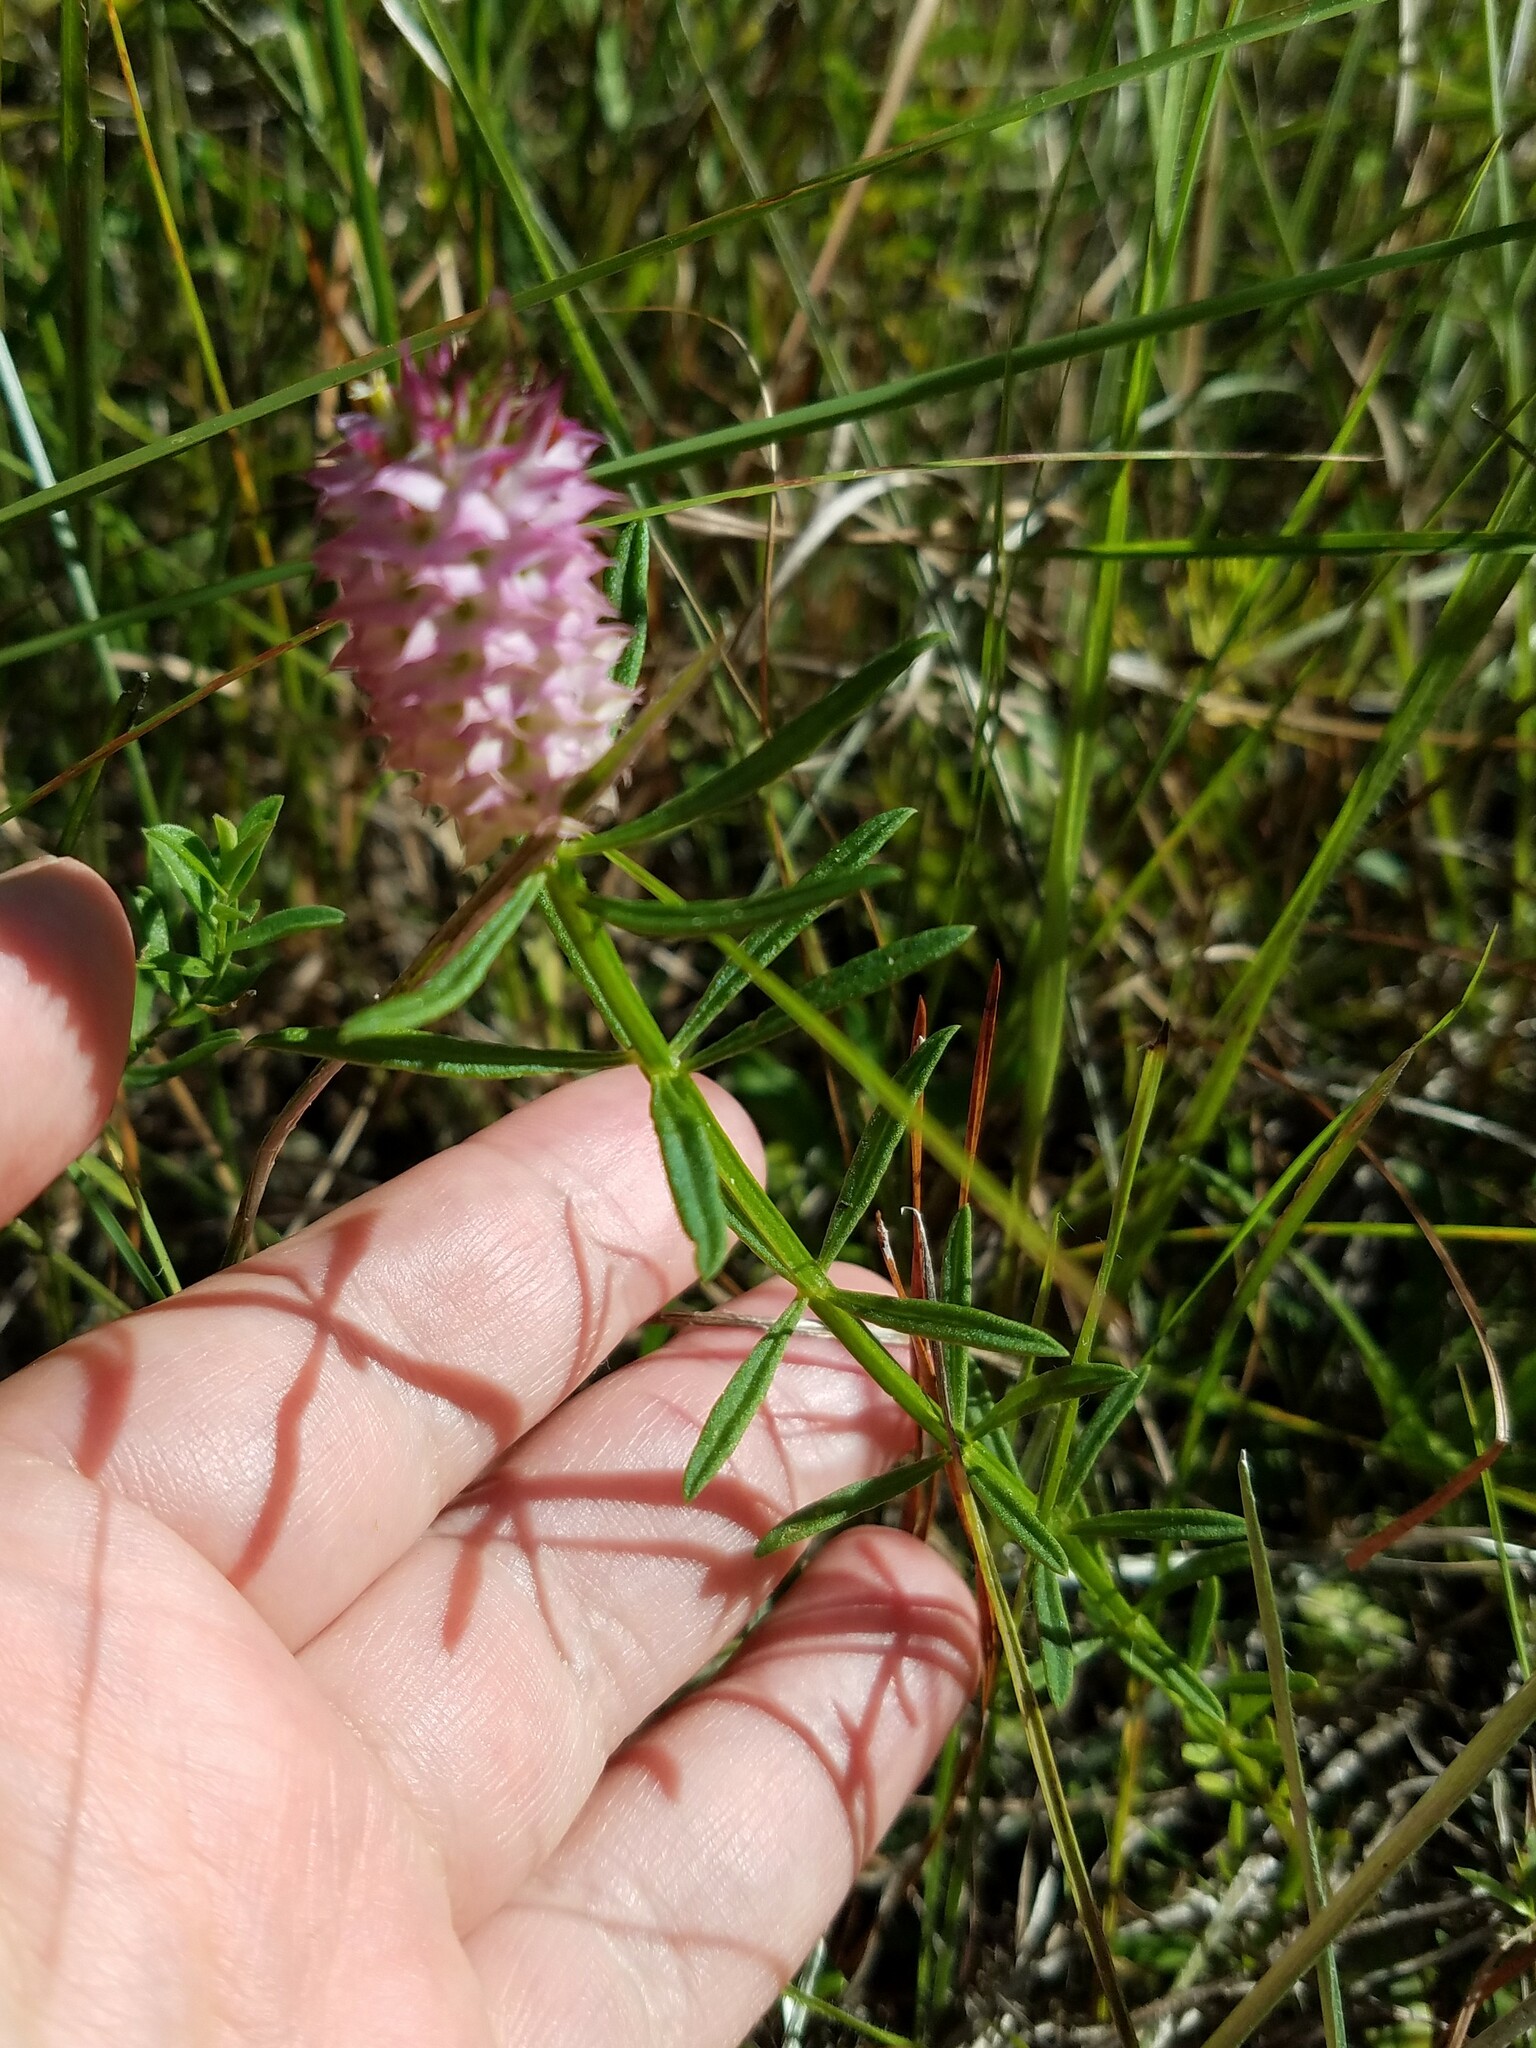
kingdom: Plantae
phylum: Tracheophyta
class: Magnoliopsida
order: Fabales
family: Polygalaceae
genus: Polygala
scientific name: Polygala cruciata
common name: Drumheads
